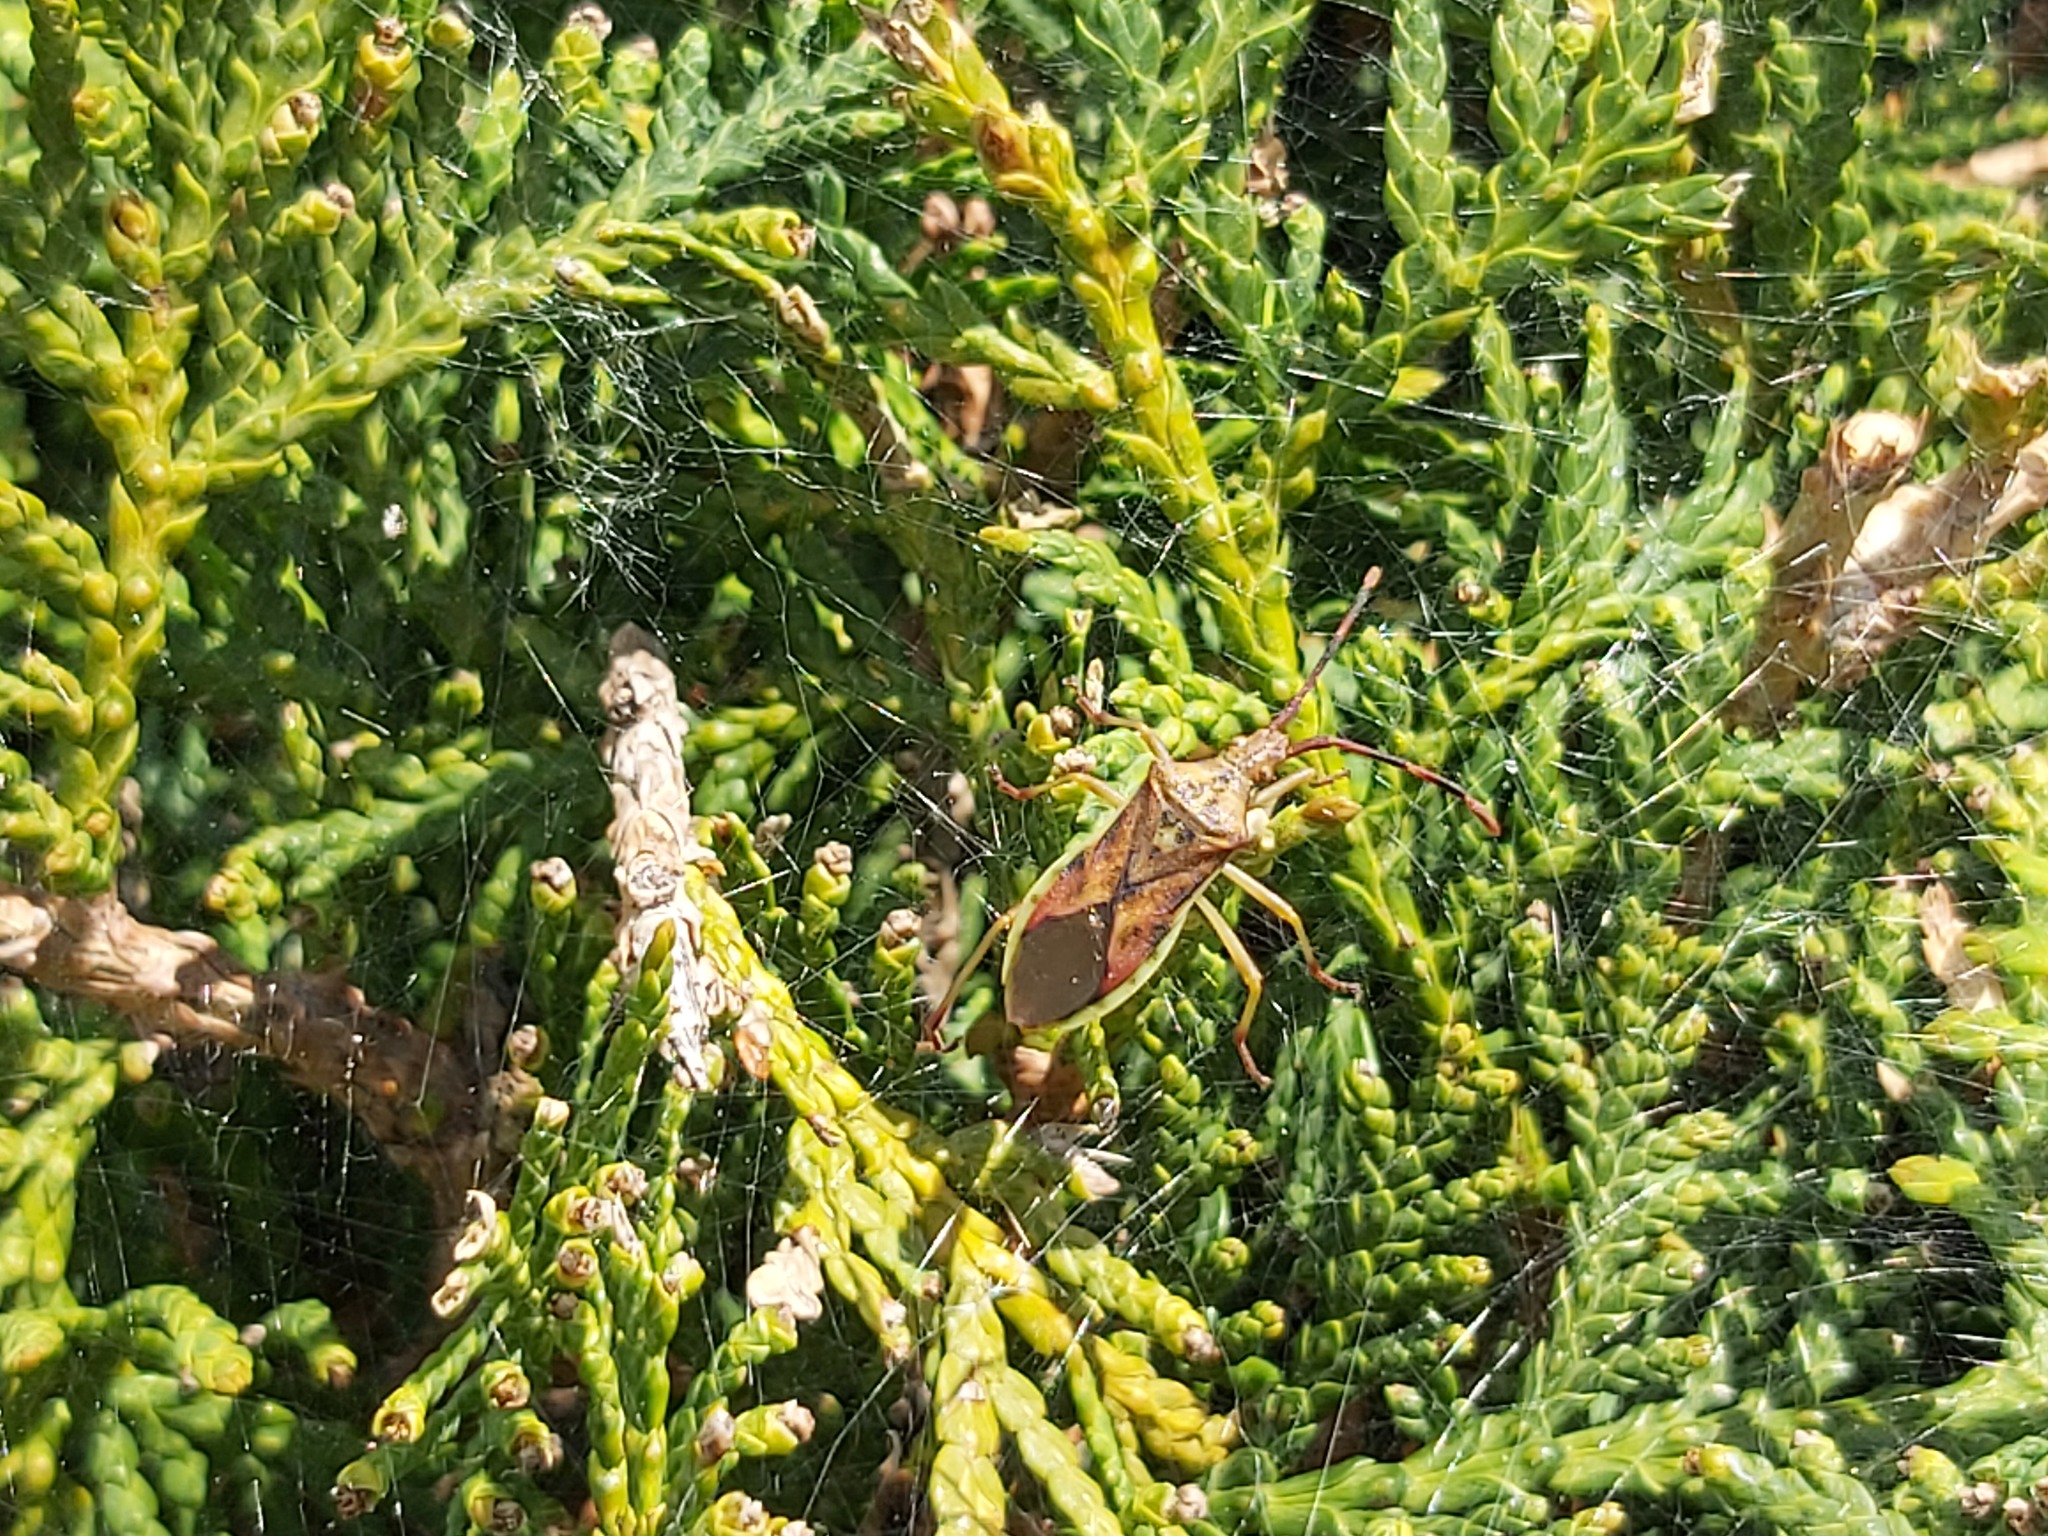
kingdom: Animalia
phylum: Arthropoda
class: Insecta
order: Hemiptera
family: Coreidae
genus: Gonocerus
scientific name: Gonocerus juniperi
